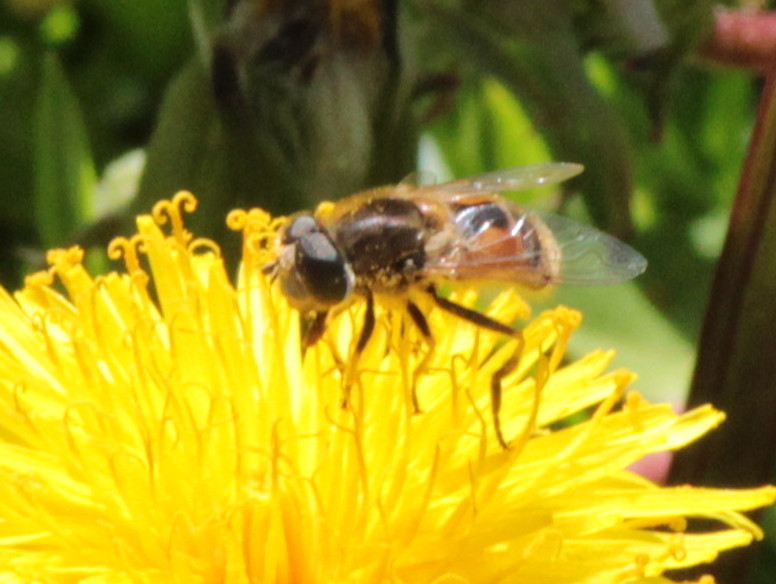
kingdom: Animalia
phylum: Arthropoda
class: Insecta
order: Diptera
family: Syrphidae
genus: Eristalis
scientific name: Eristalis arbustorum
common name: Hover fly
